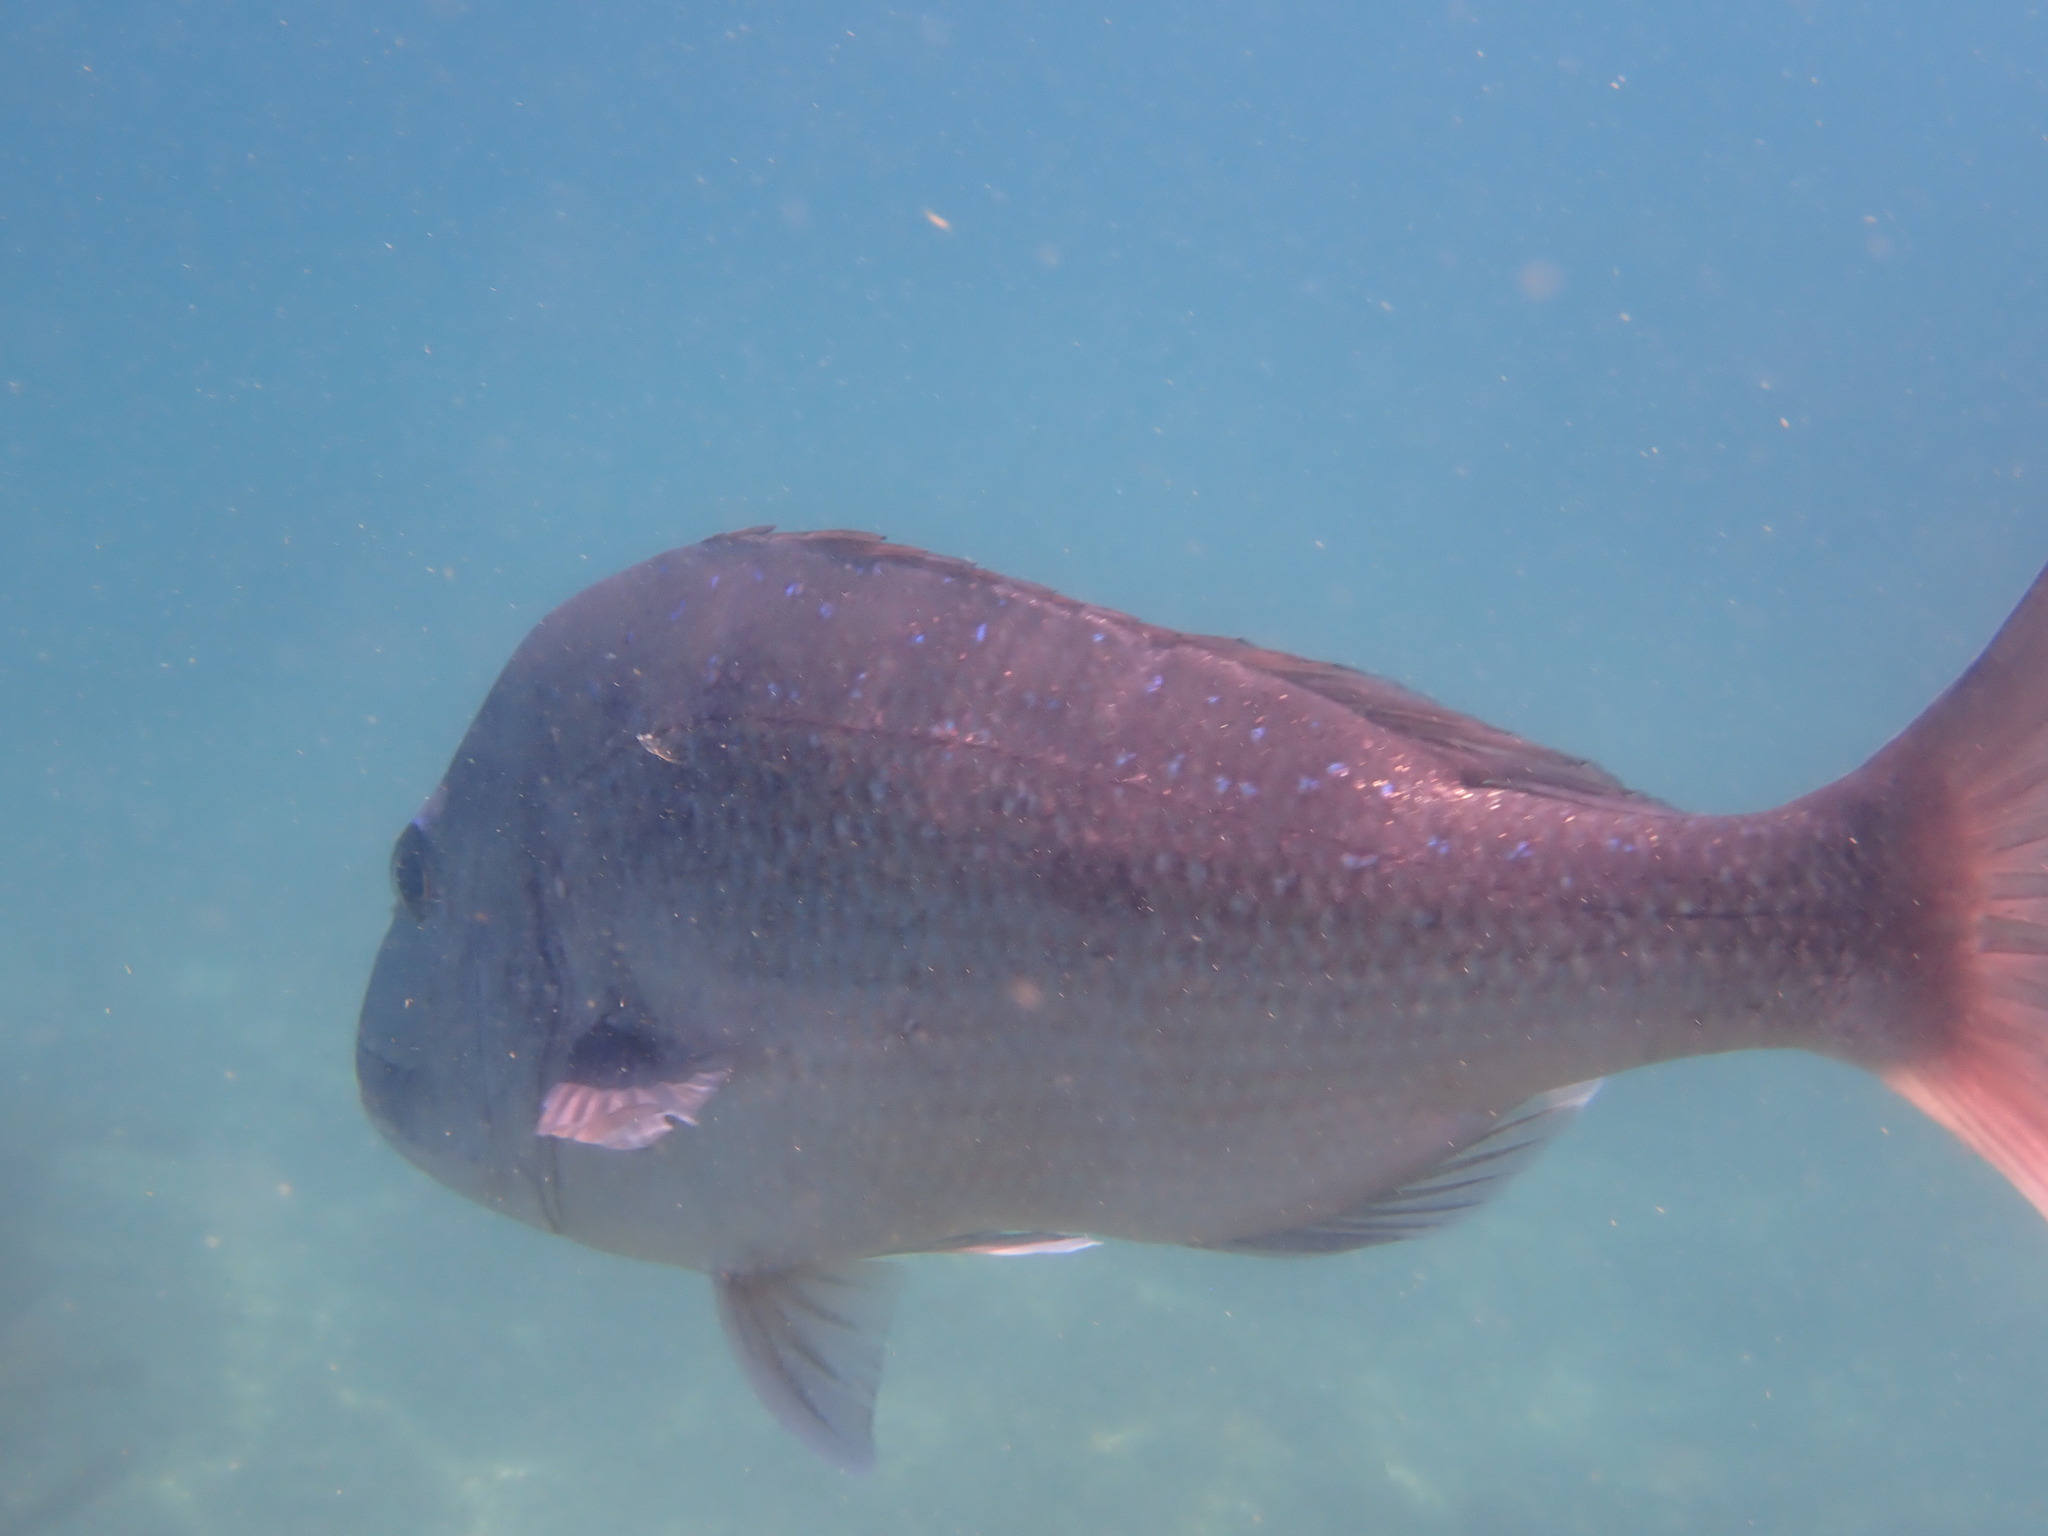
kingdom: Animalia
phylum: Chordata
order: Perciformes
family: Sparidae
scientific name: Sparidae
